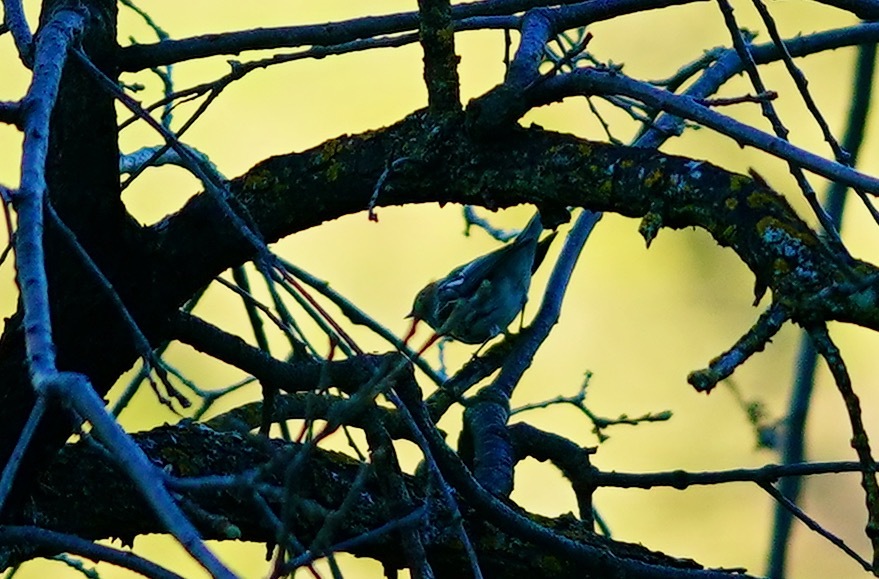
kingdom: Animalia
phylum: Chordata
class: Aves
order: Passeriformes
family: Parulidae
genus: Setophaga
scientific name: Setophaga coronata
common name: Myrtle warbler
